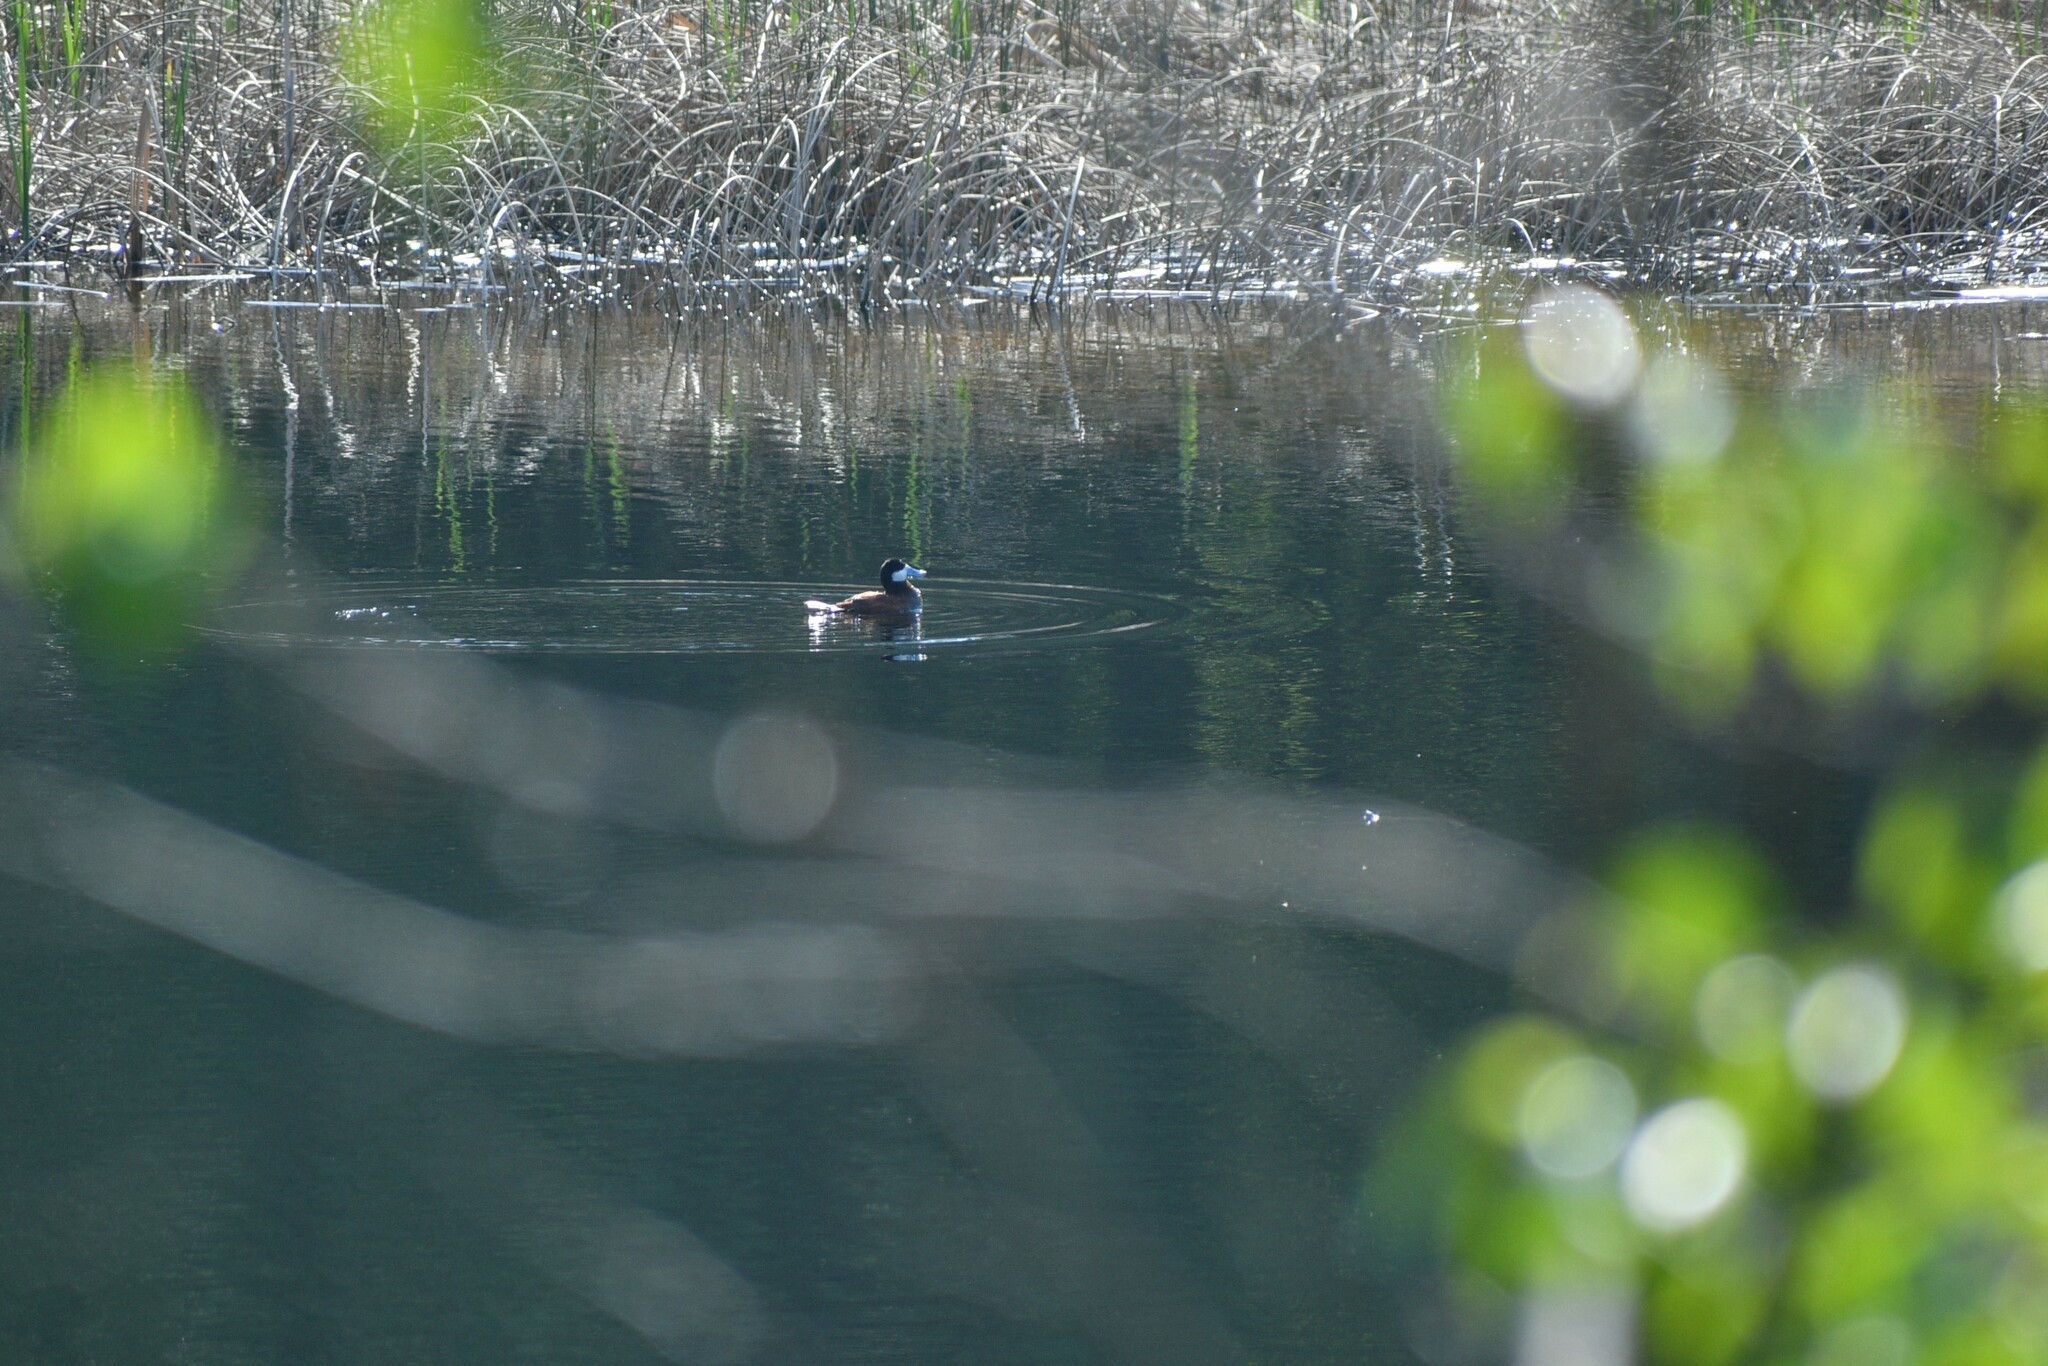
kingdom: Animalia
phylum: Chordata
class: Aves
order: Anseriformes
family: Anatidae
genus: Oxyura
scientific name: Oxyura jamaicensis
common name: Ruddy duck
